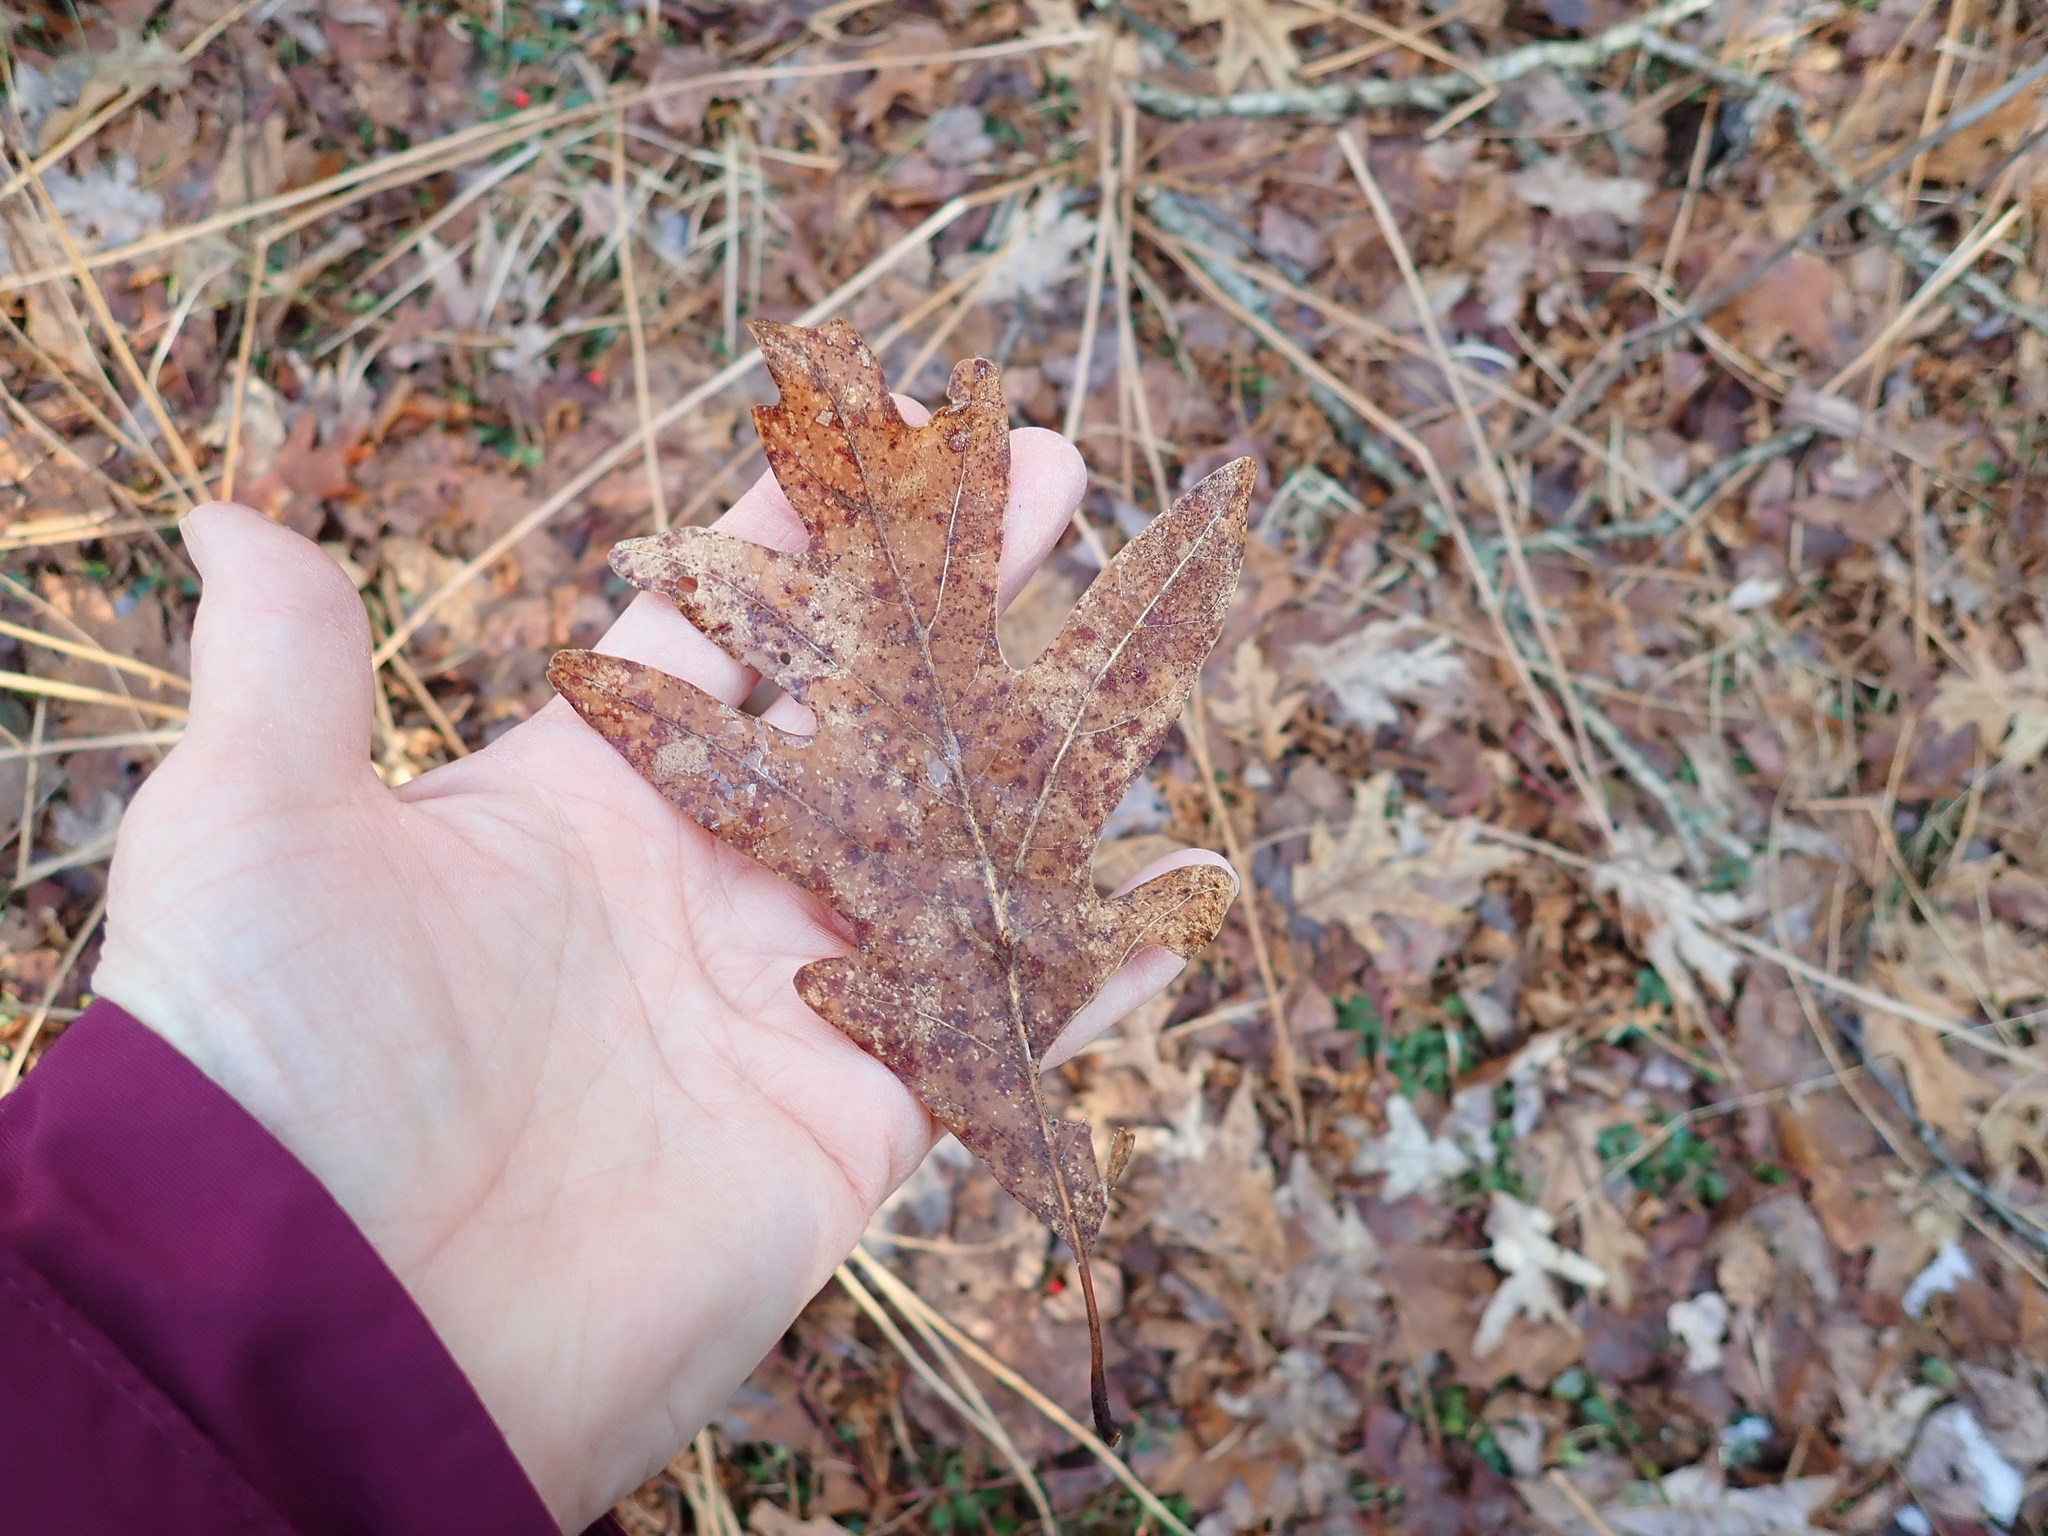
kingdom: Plantae
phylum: Tracheophyta
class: Magnoliopsida
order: Fagales
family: Fagaceae
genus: Quercus
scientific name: Quercus alba
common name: White oak
